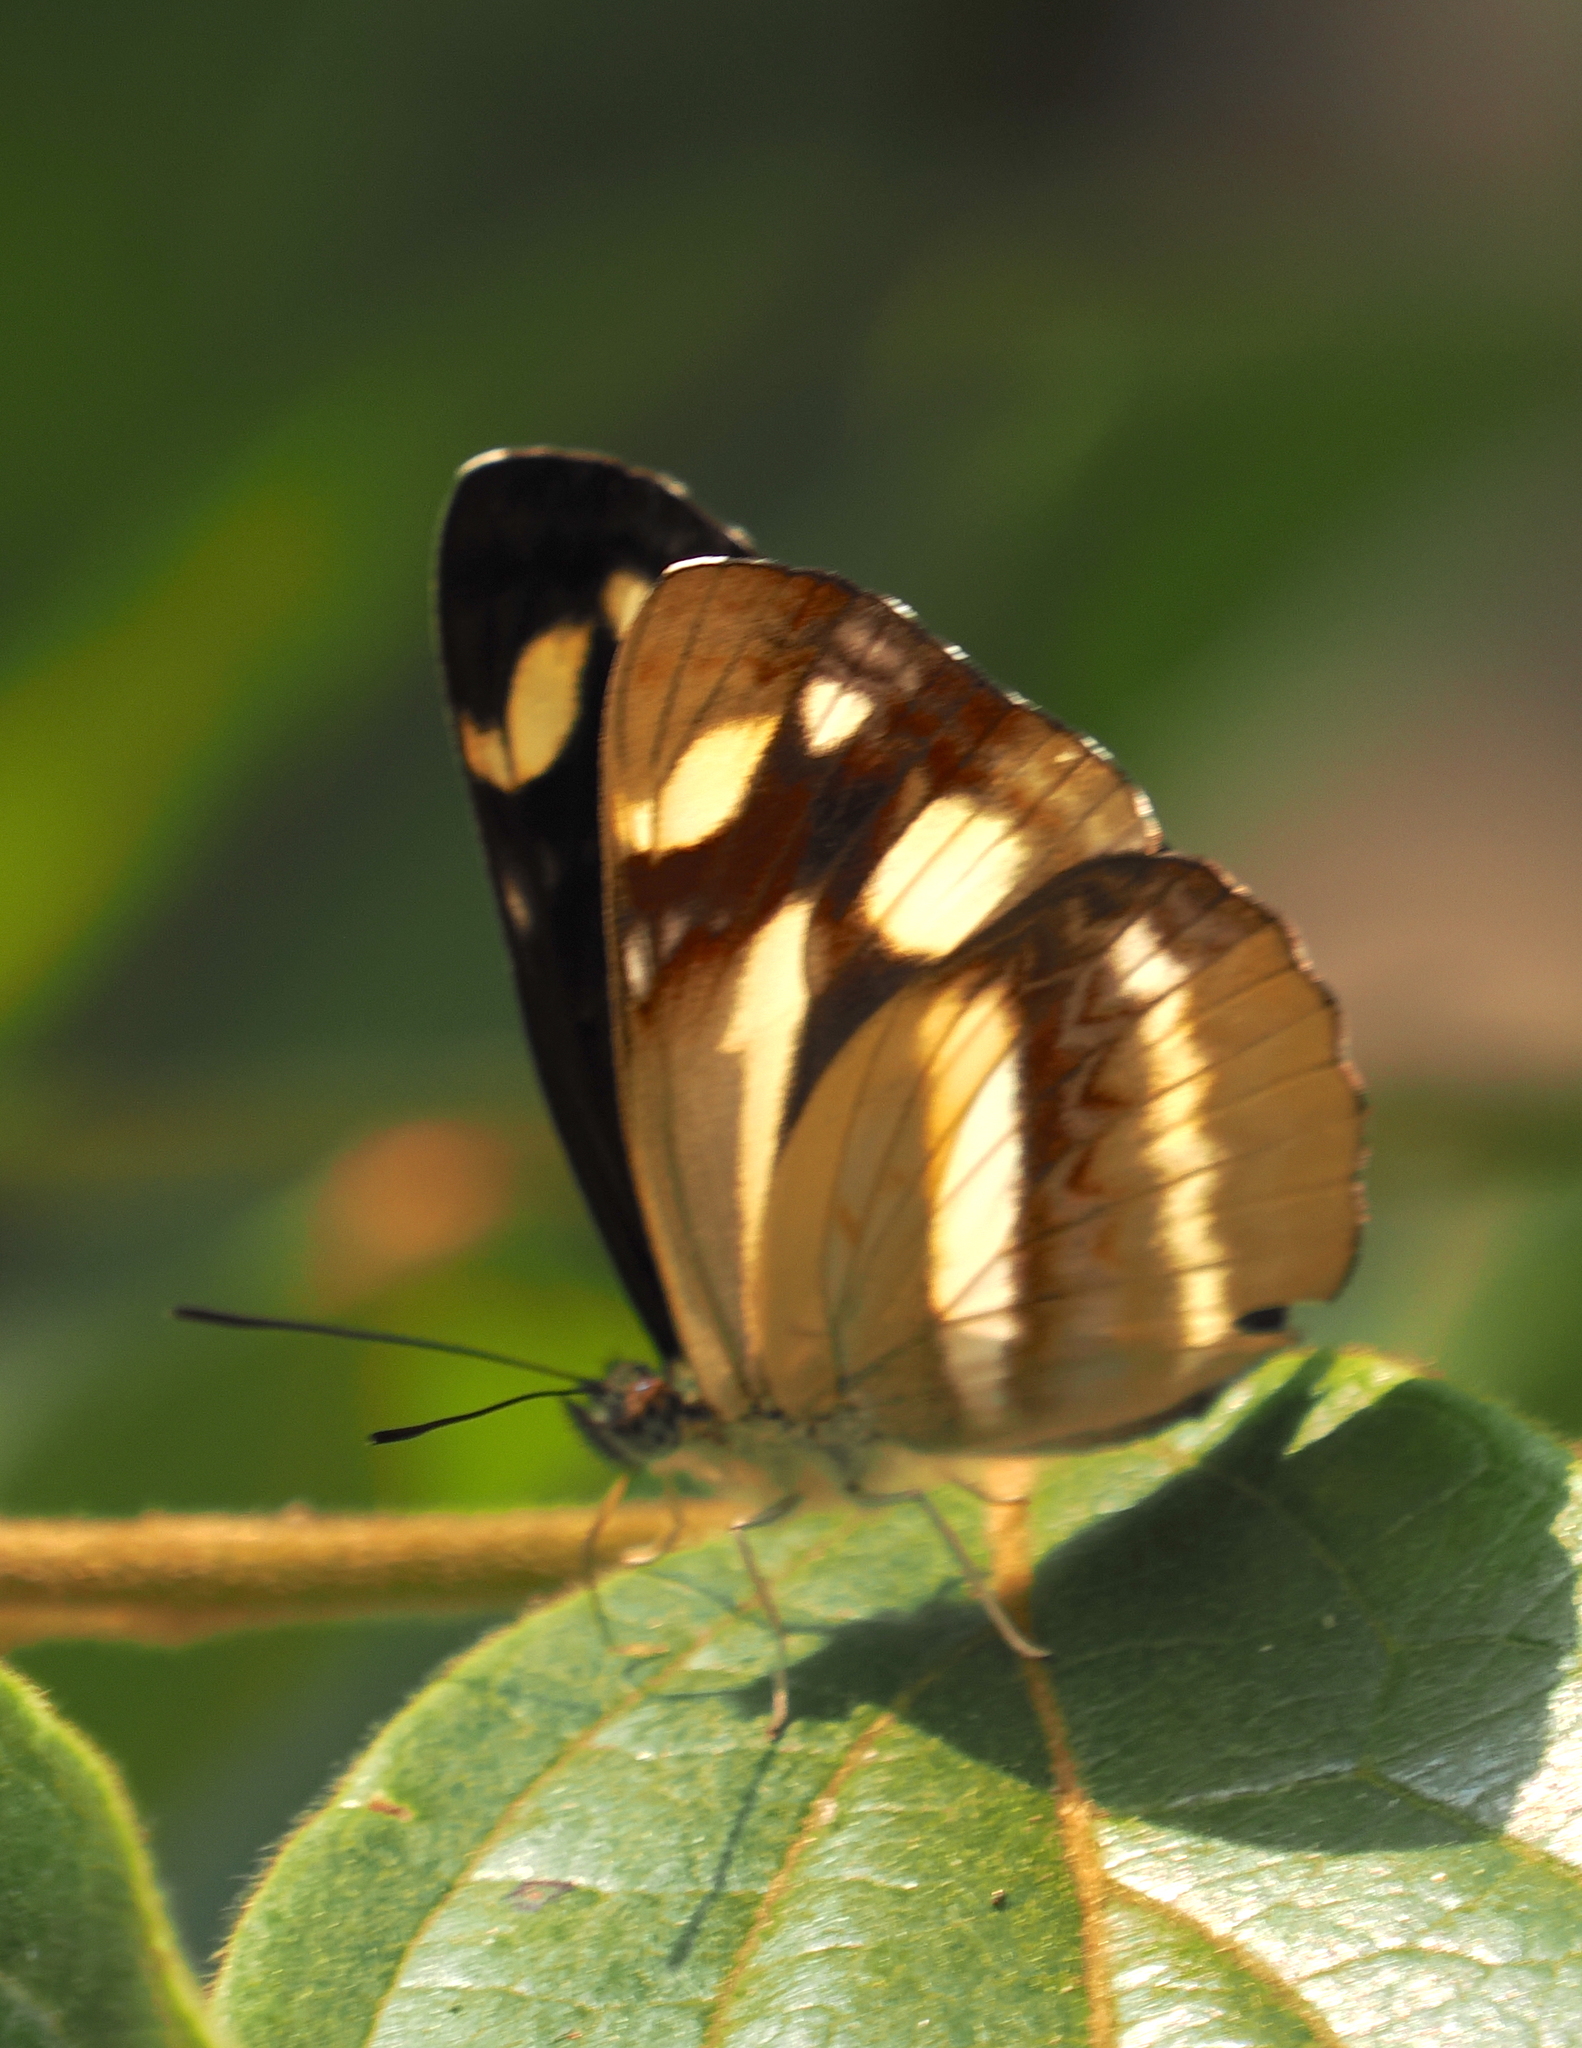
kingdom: Animalia
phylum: Arthropoda
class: Insecta
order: Lepidoptera
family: Nymphalidae
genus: Neptis
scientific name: Neptis armandia
